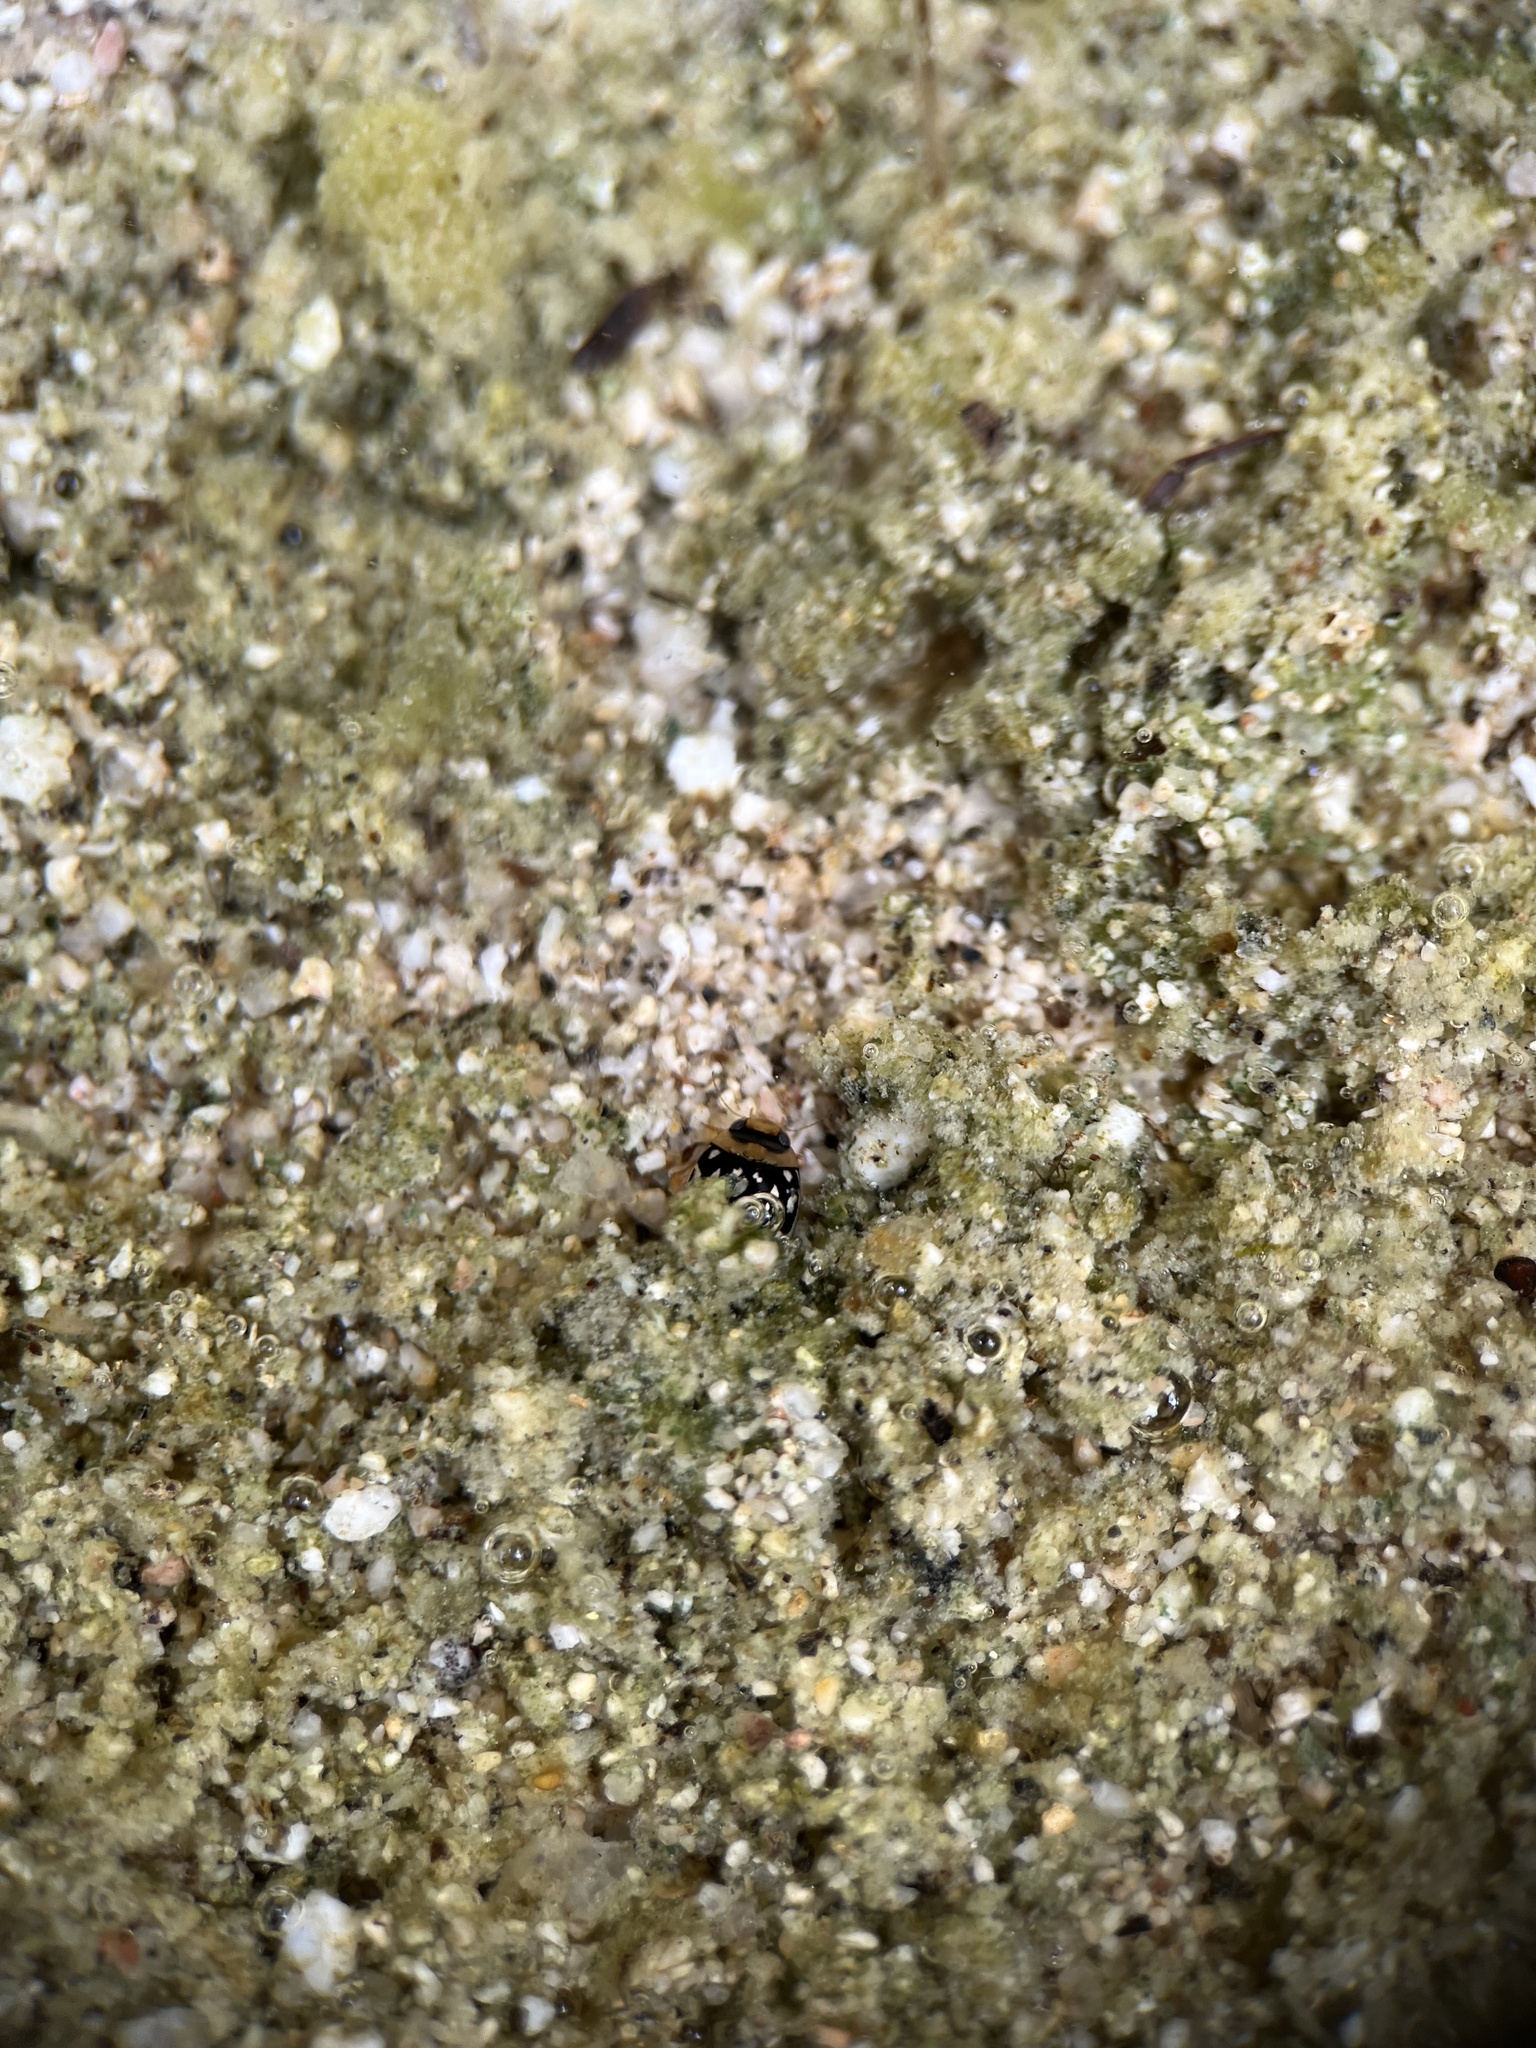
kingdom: Animalia
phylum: Arthropoda
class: Insecta
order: Coleoptera
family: Dytiscidae
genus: Laccophilus
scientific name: Laccophilus pictus
